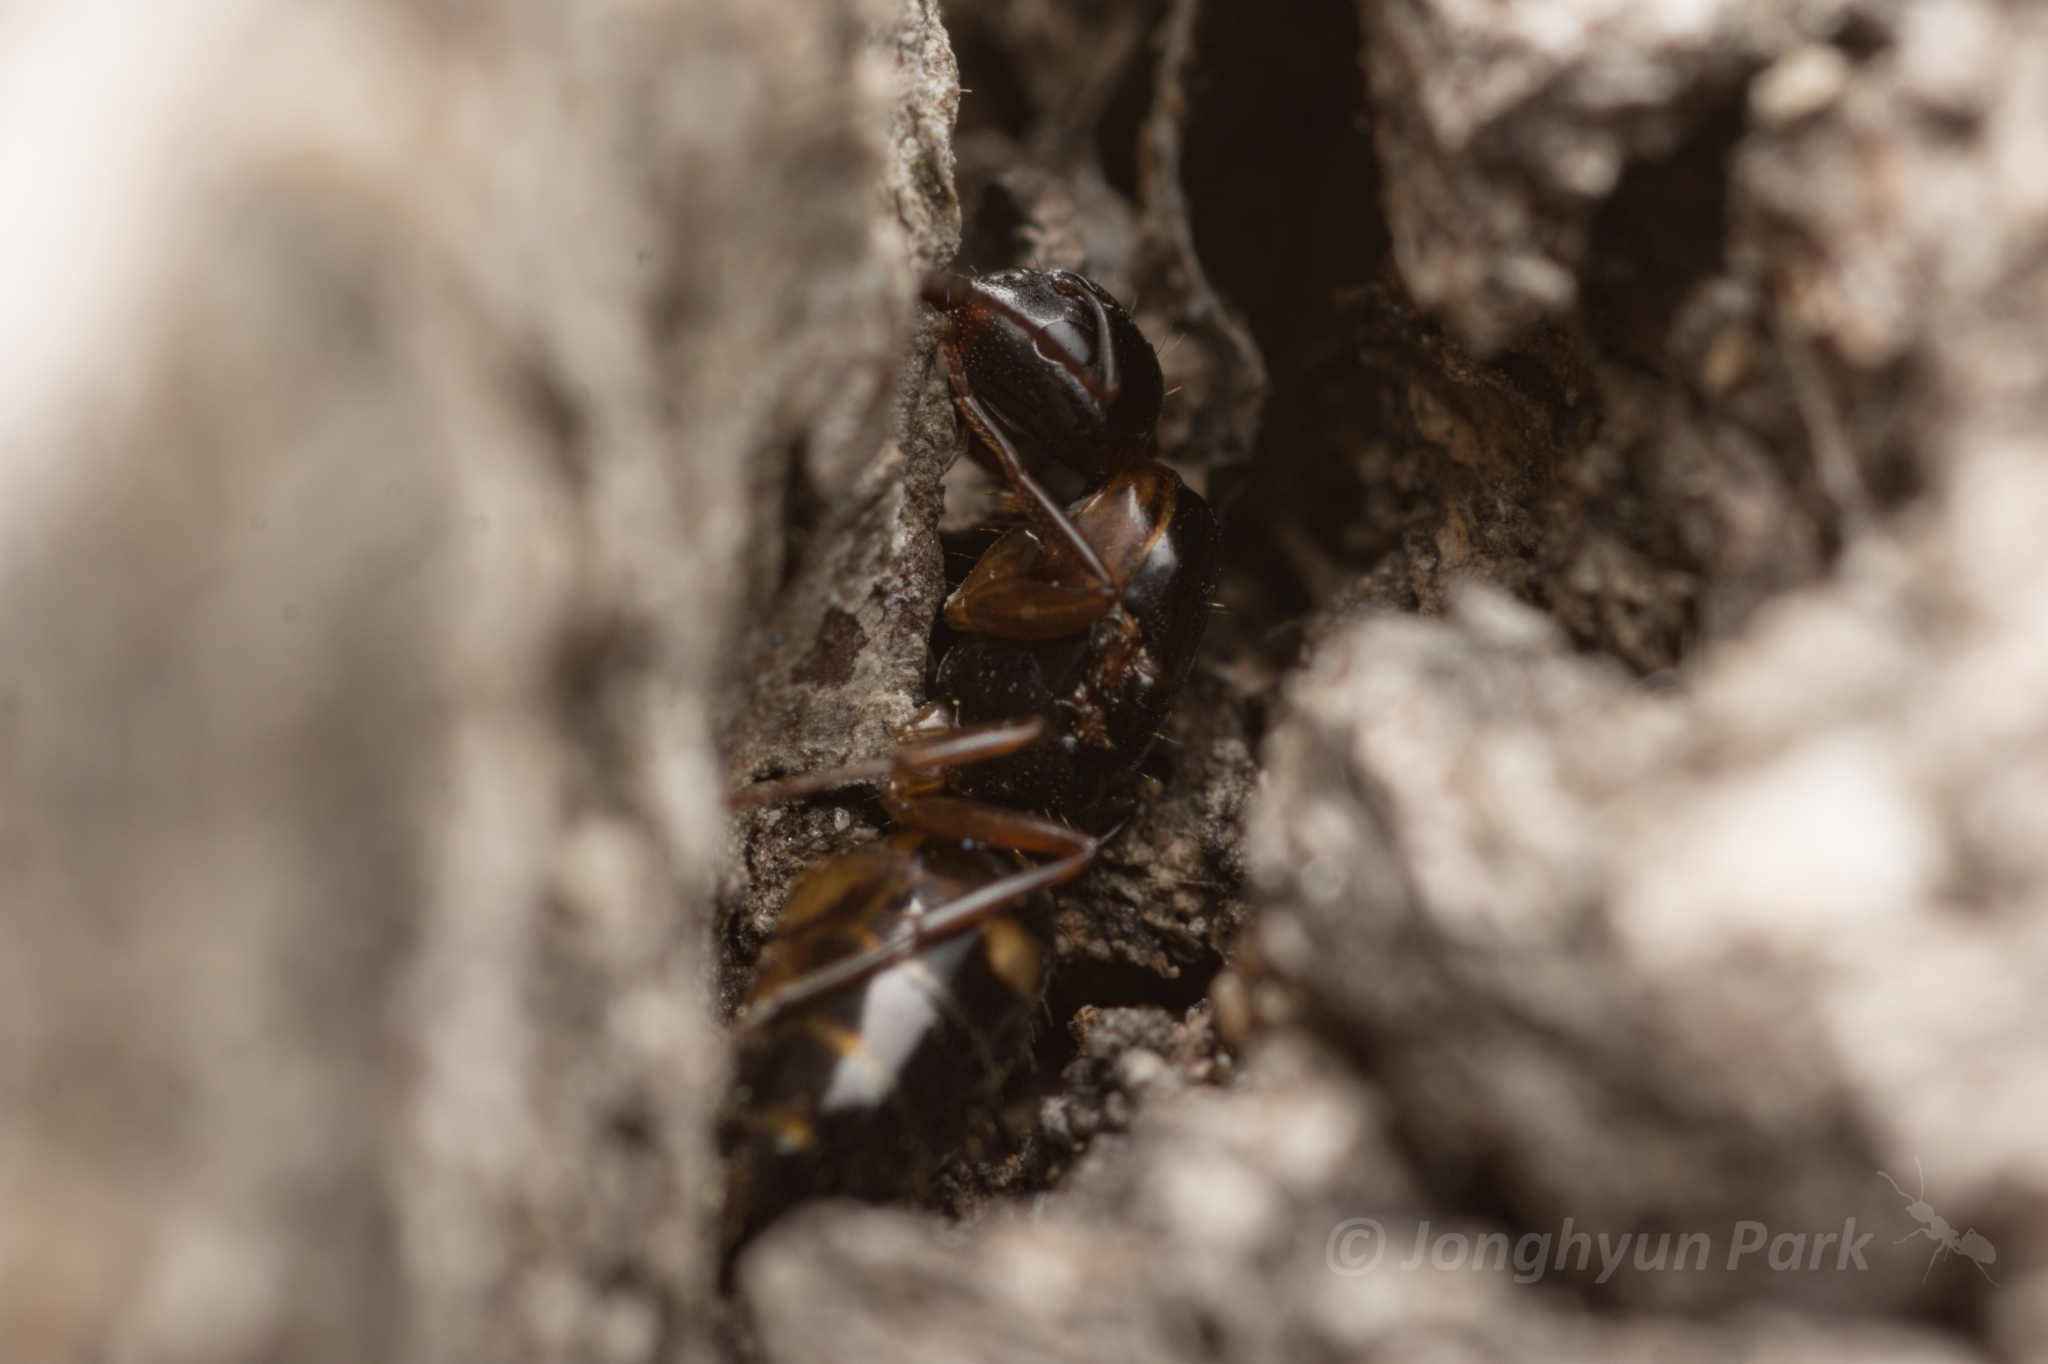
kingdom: Animalia
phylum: Arthropoda
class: Insecta
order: Hymenoptera
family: Formicidae
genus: Camponotus
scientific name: Camponotus quadrinotatus
